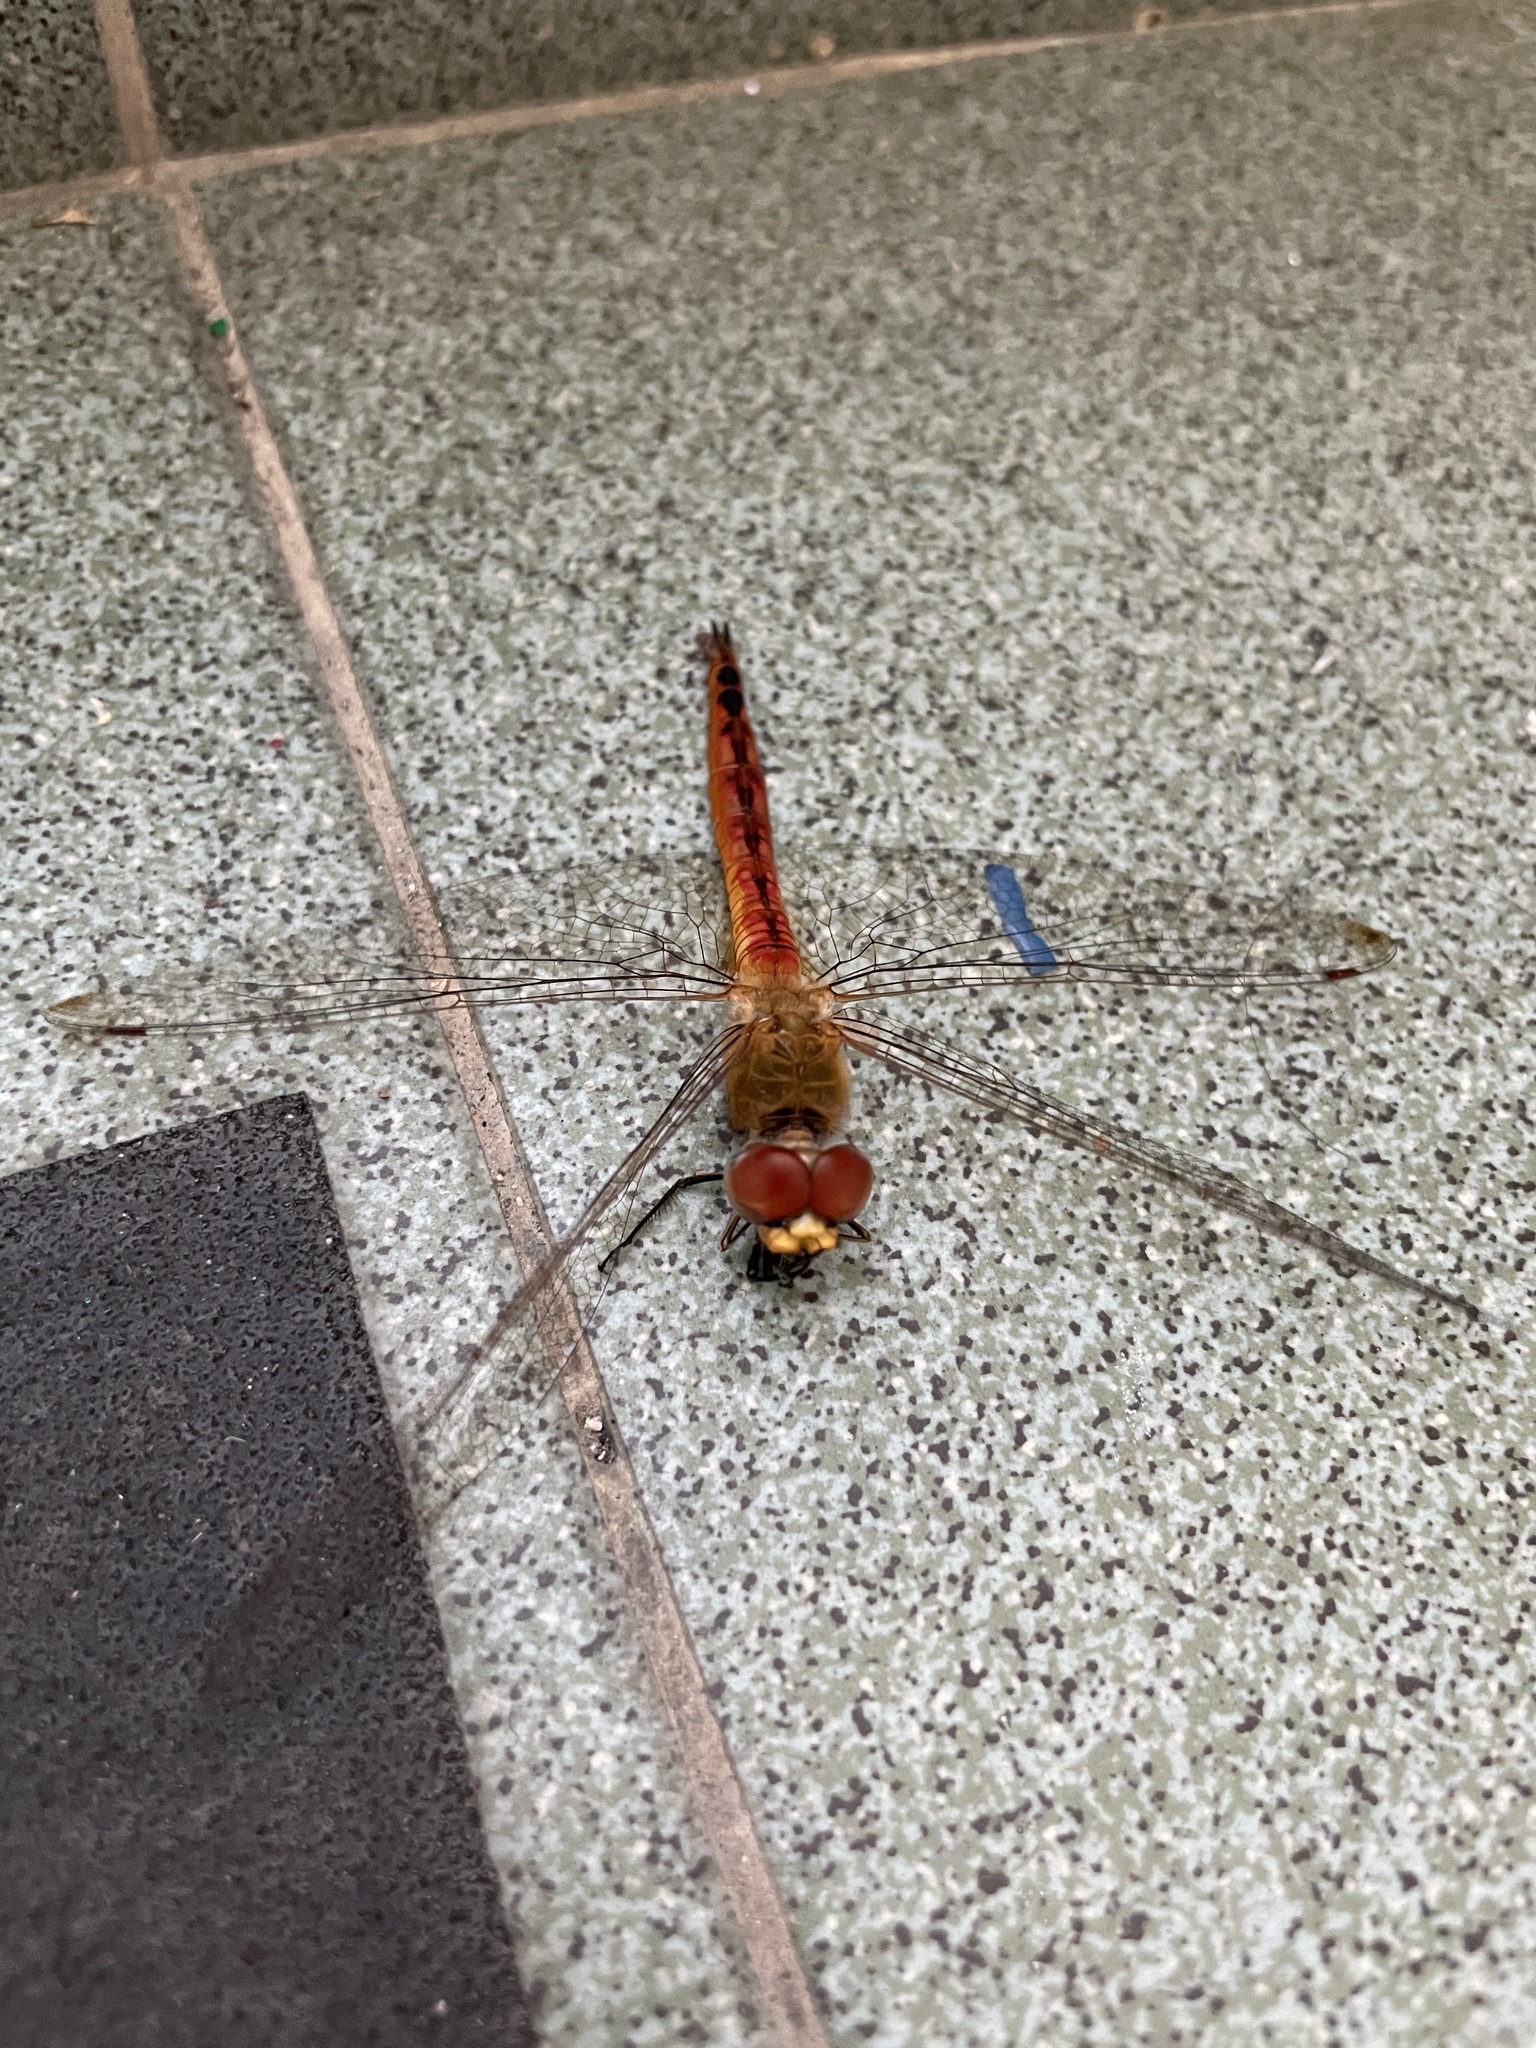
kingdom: Animalia
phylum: Arthropoda
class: Insecta
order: Odonata
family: Libellulidae
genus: Pantala
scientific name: Pantala flavescens
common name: Wandering glider
